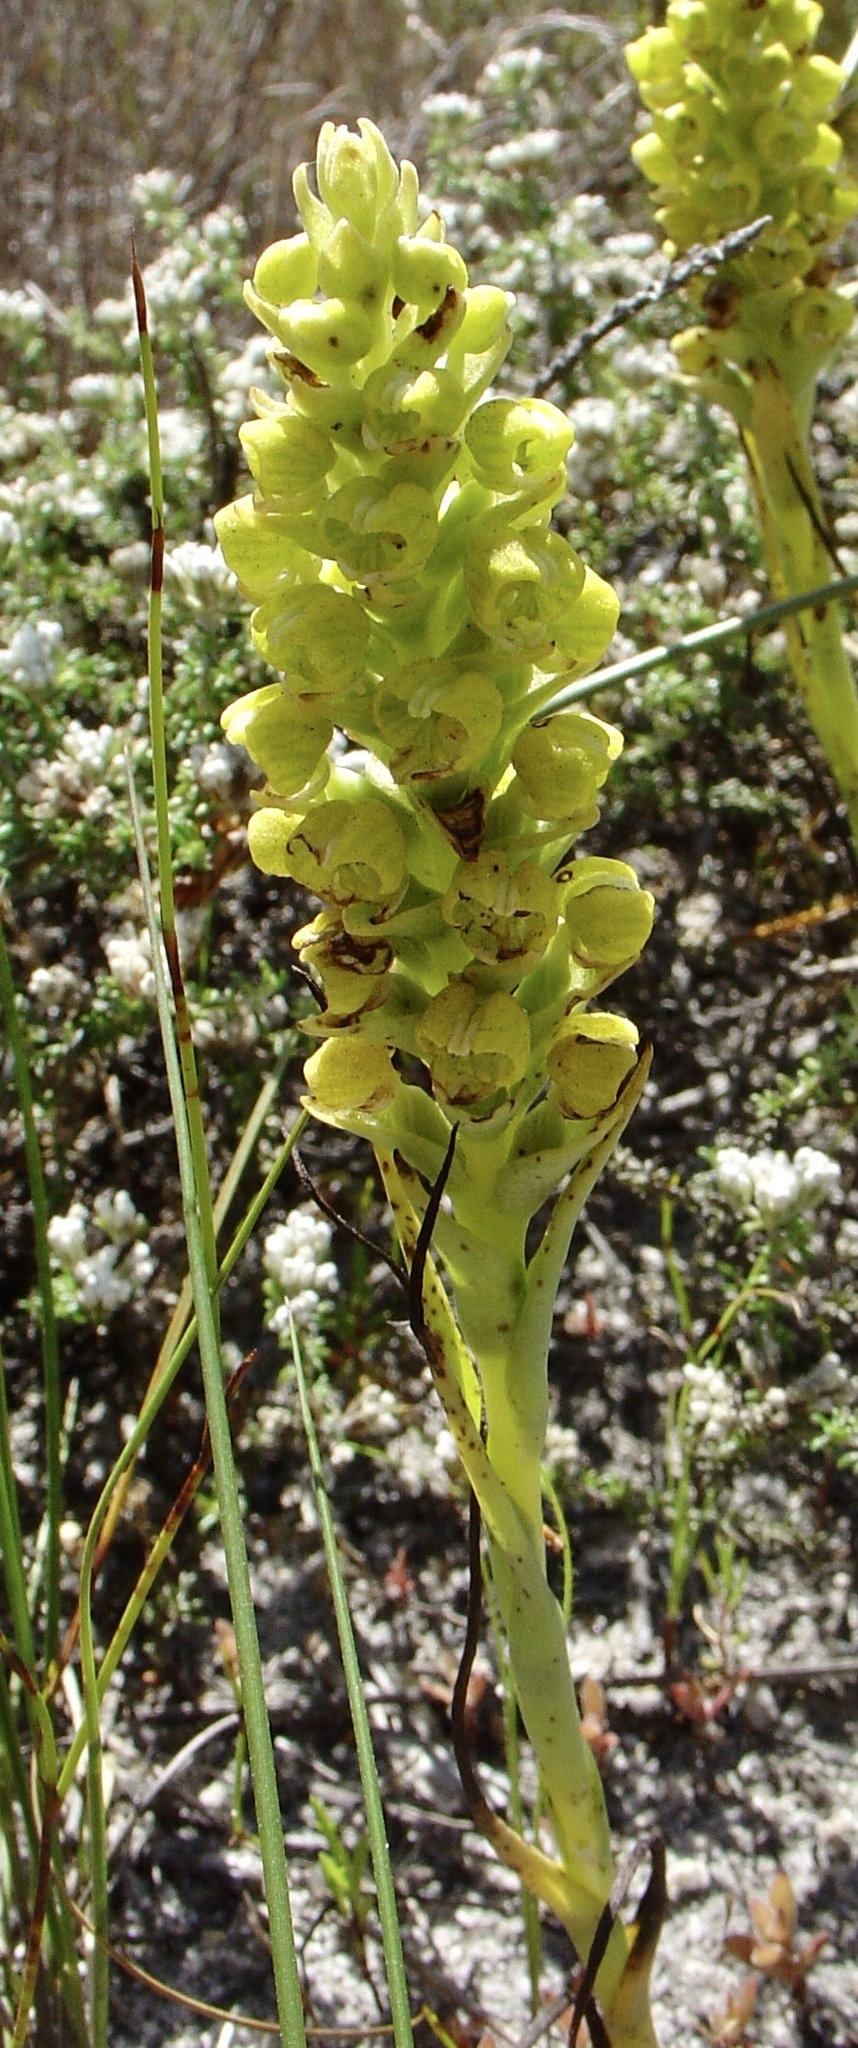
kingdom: Plantae
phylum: Tracheophyta
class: Liliopsida
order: Asparagales
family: Orchidaceae
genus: Corycium
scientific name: Corycium excisum
